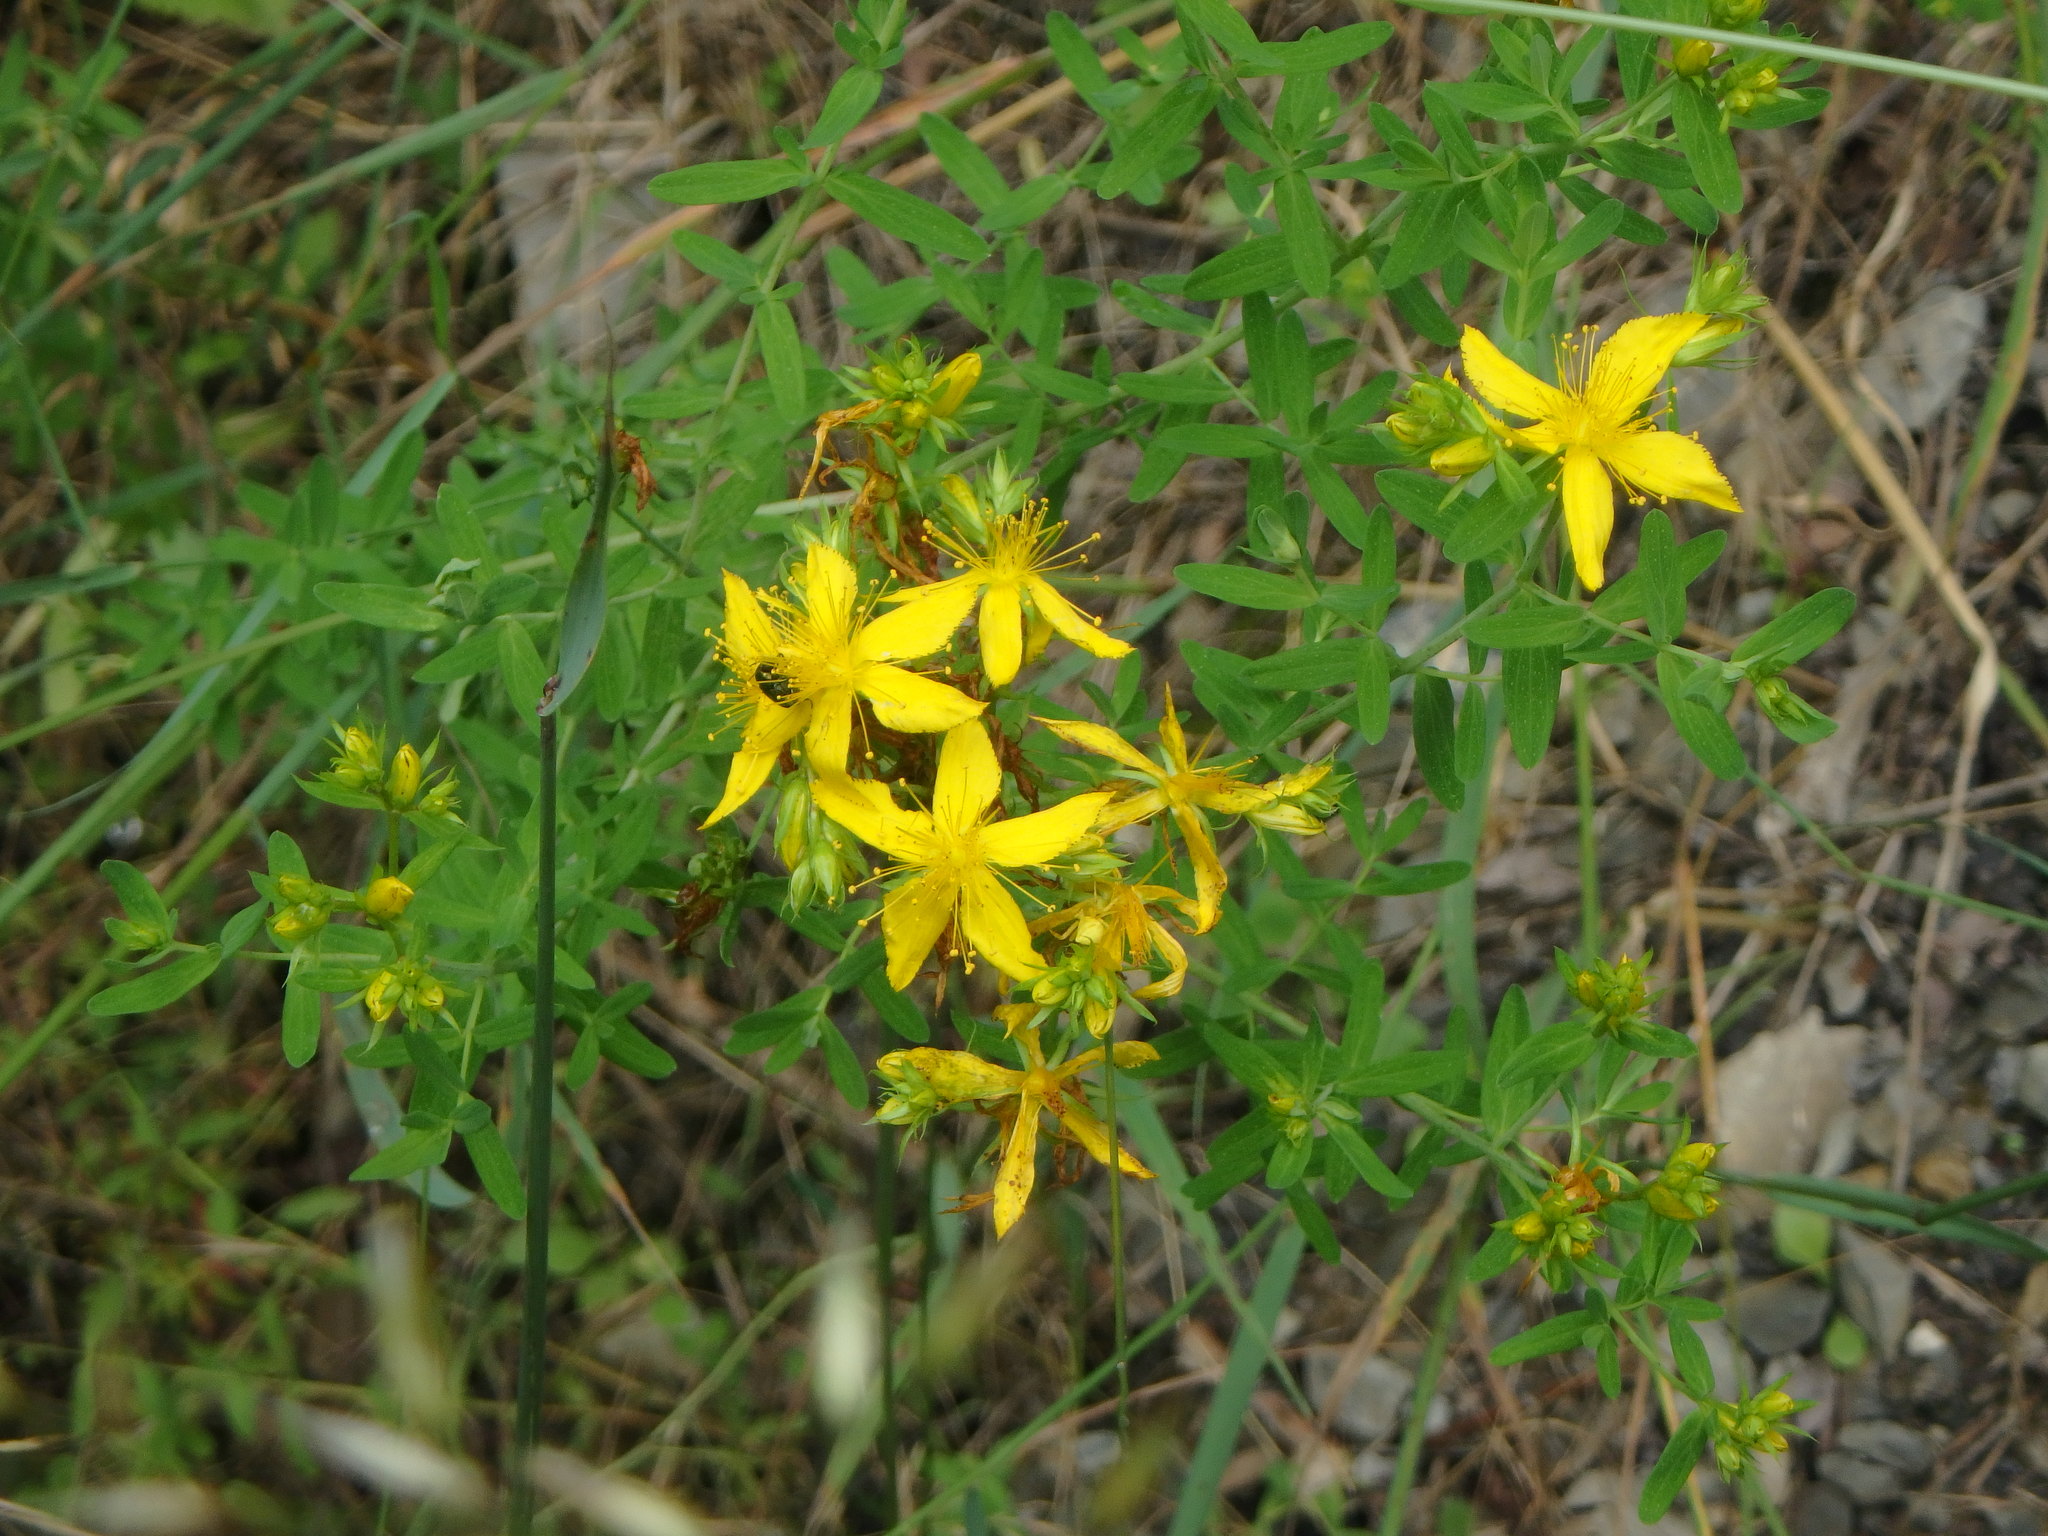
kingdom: Plantae
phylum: Tracheophyta
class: Magnoliopsida
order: Malpighiales
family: Hypericaceae
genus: Hypericum
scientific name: Hypericum perforatum
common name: Common st. johnswort
